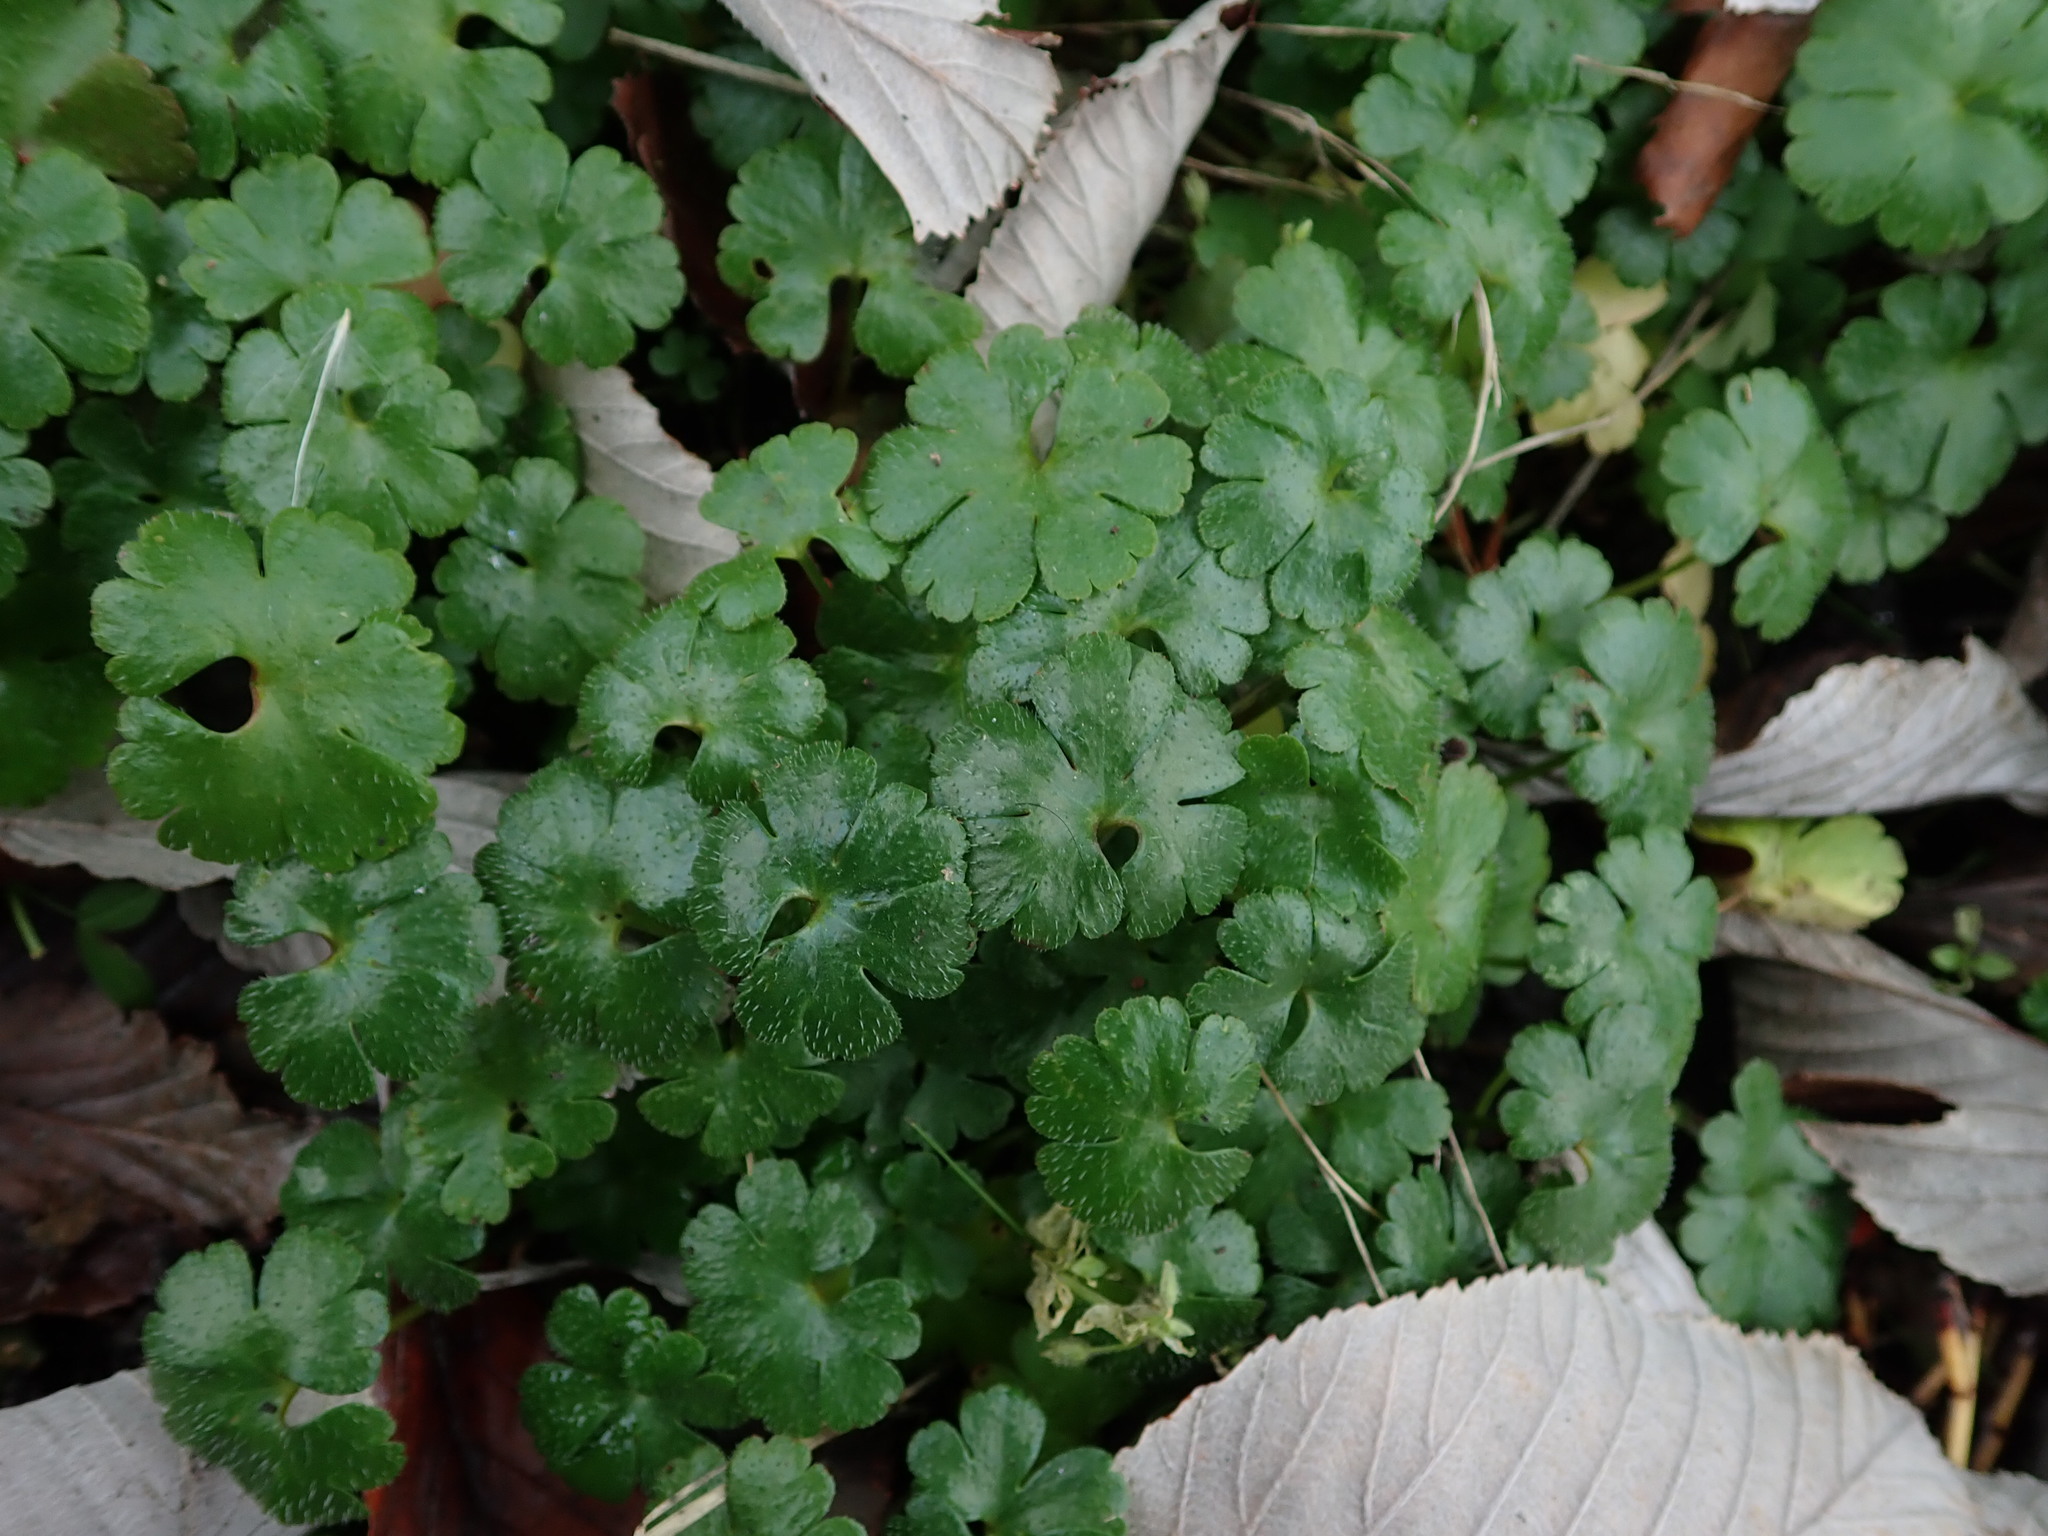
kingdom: Plantae
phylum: Tracheophyta
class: Magnoliopsida
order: Geraniales
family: Geraniaceae
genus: Geranium
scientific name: Geranium lucidum
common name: Shining crane's-bill
